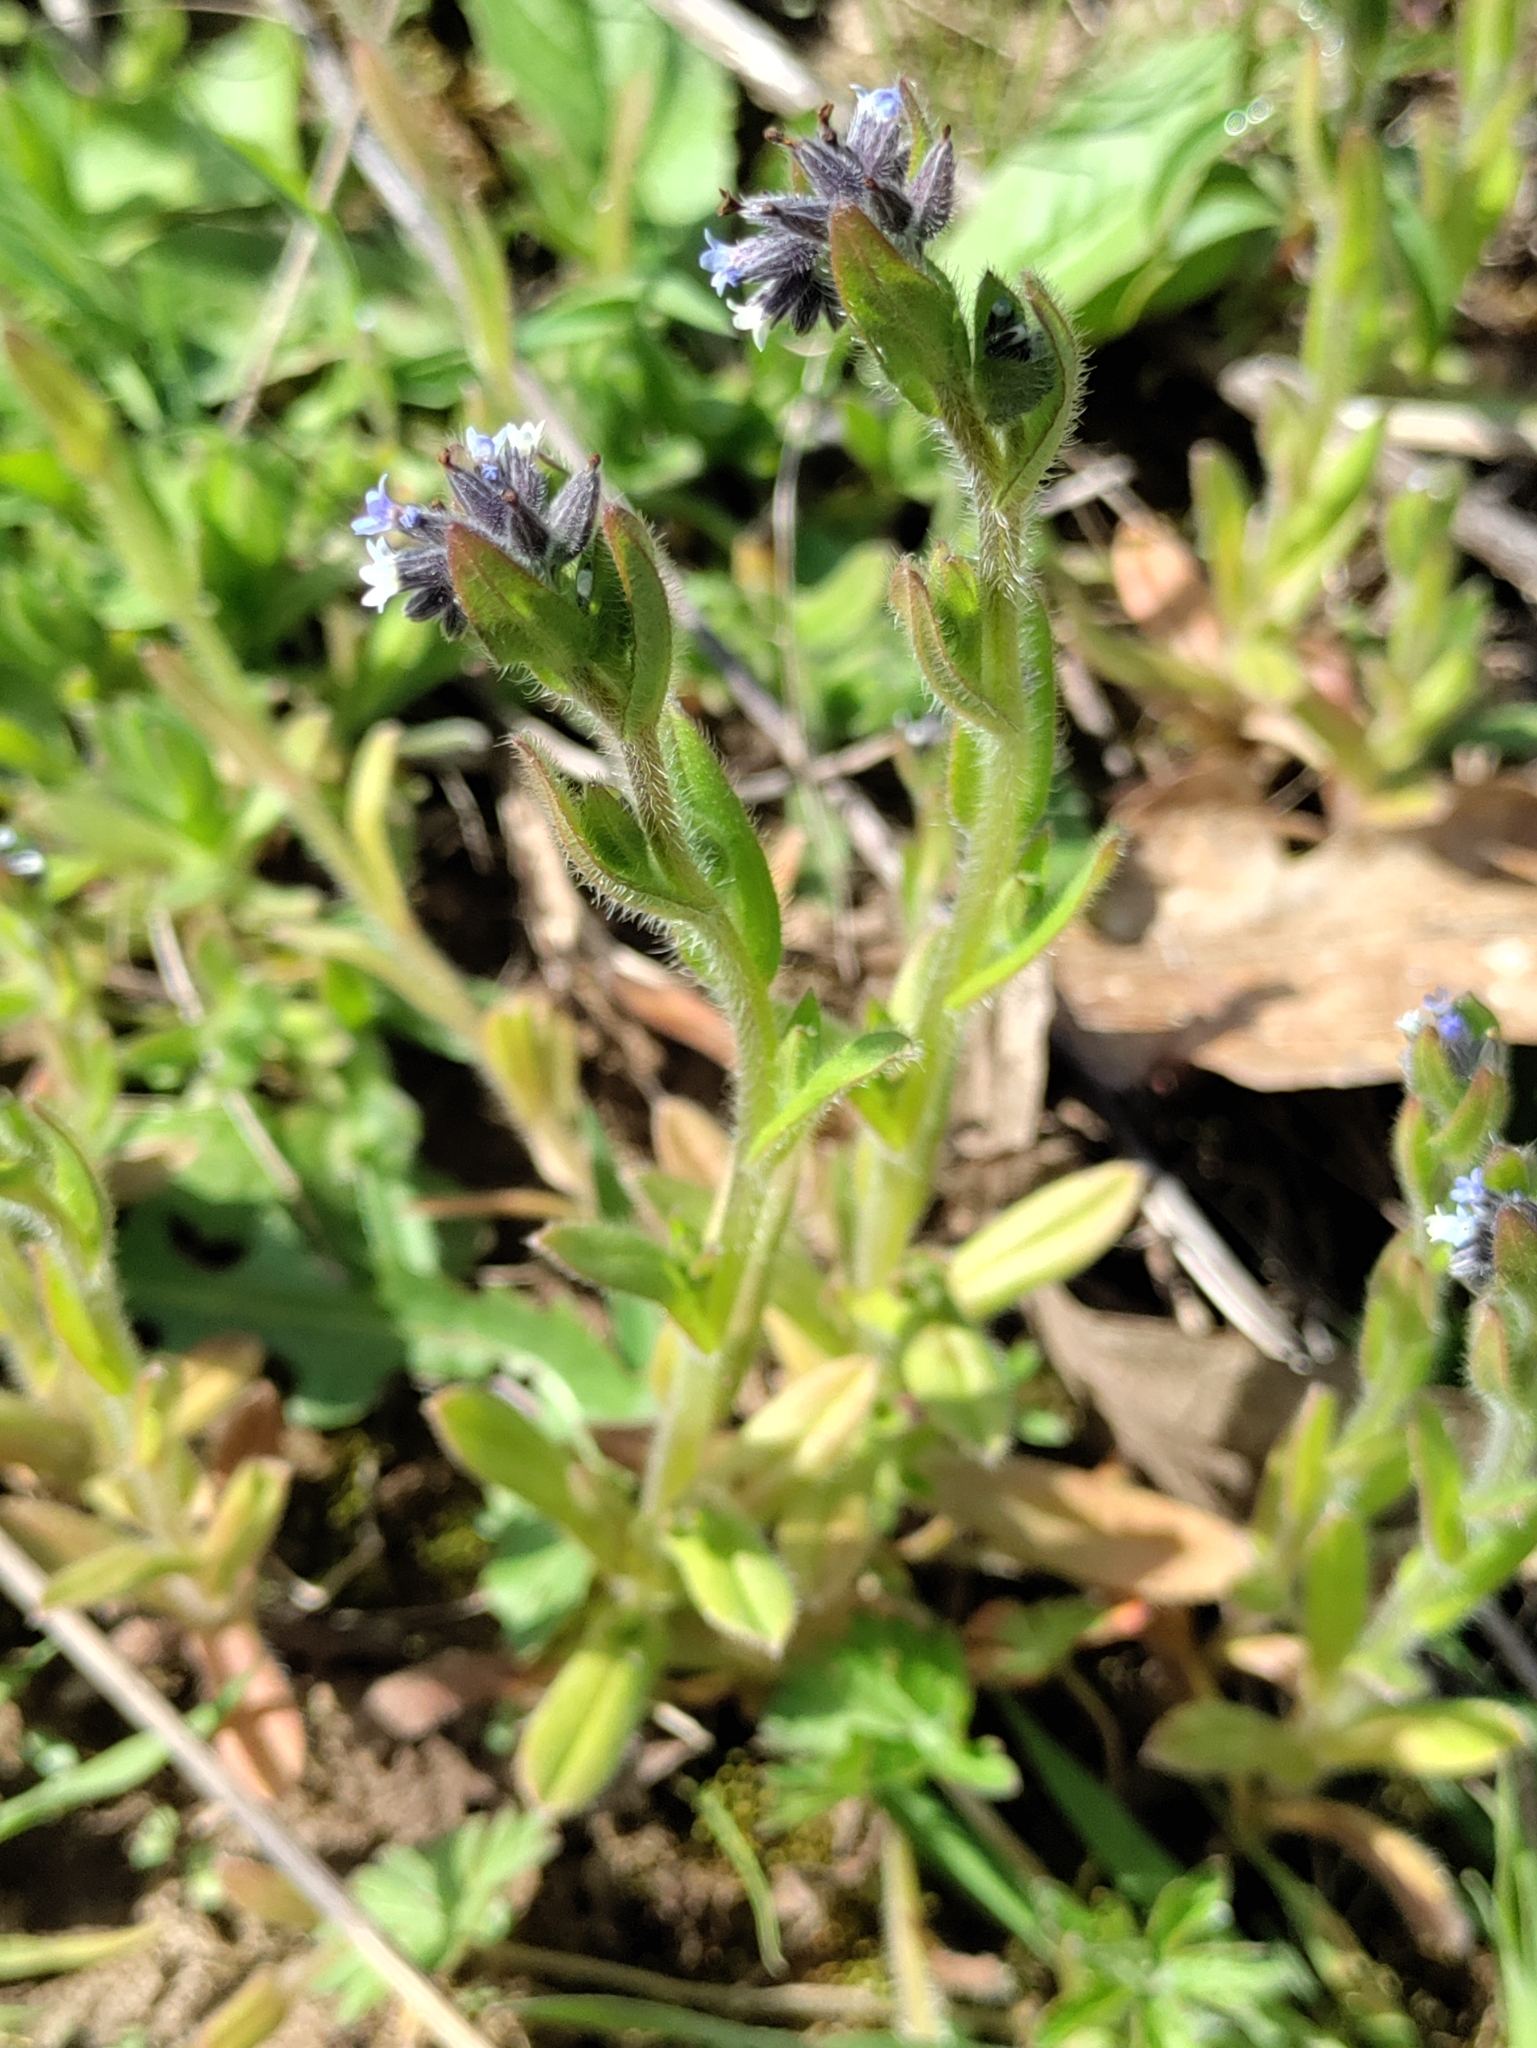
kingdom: Plantae
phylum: Tracheophyta
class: Magnoliopsida
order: Boraginales
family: Boraginaceae
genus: Myosotis
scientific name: Myosotis discolor
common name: Changing forget-me-not
